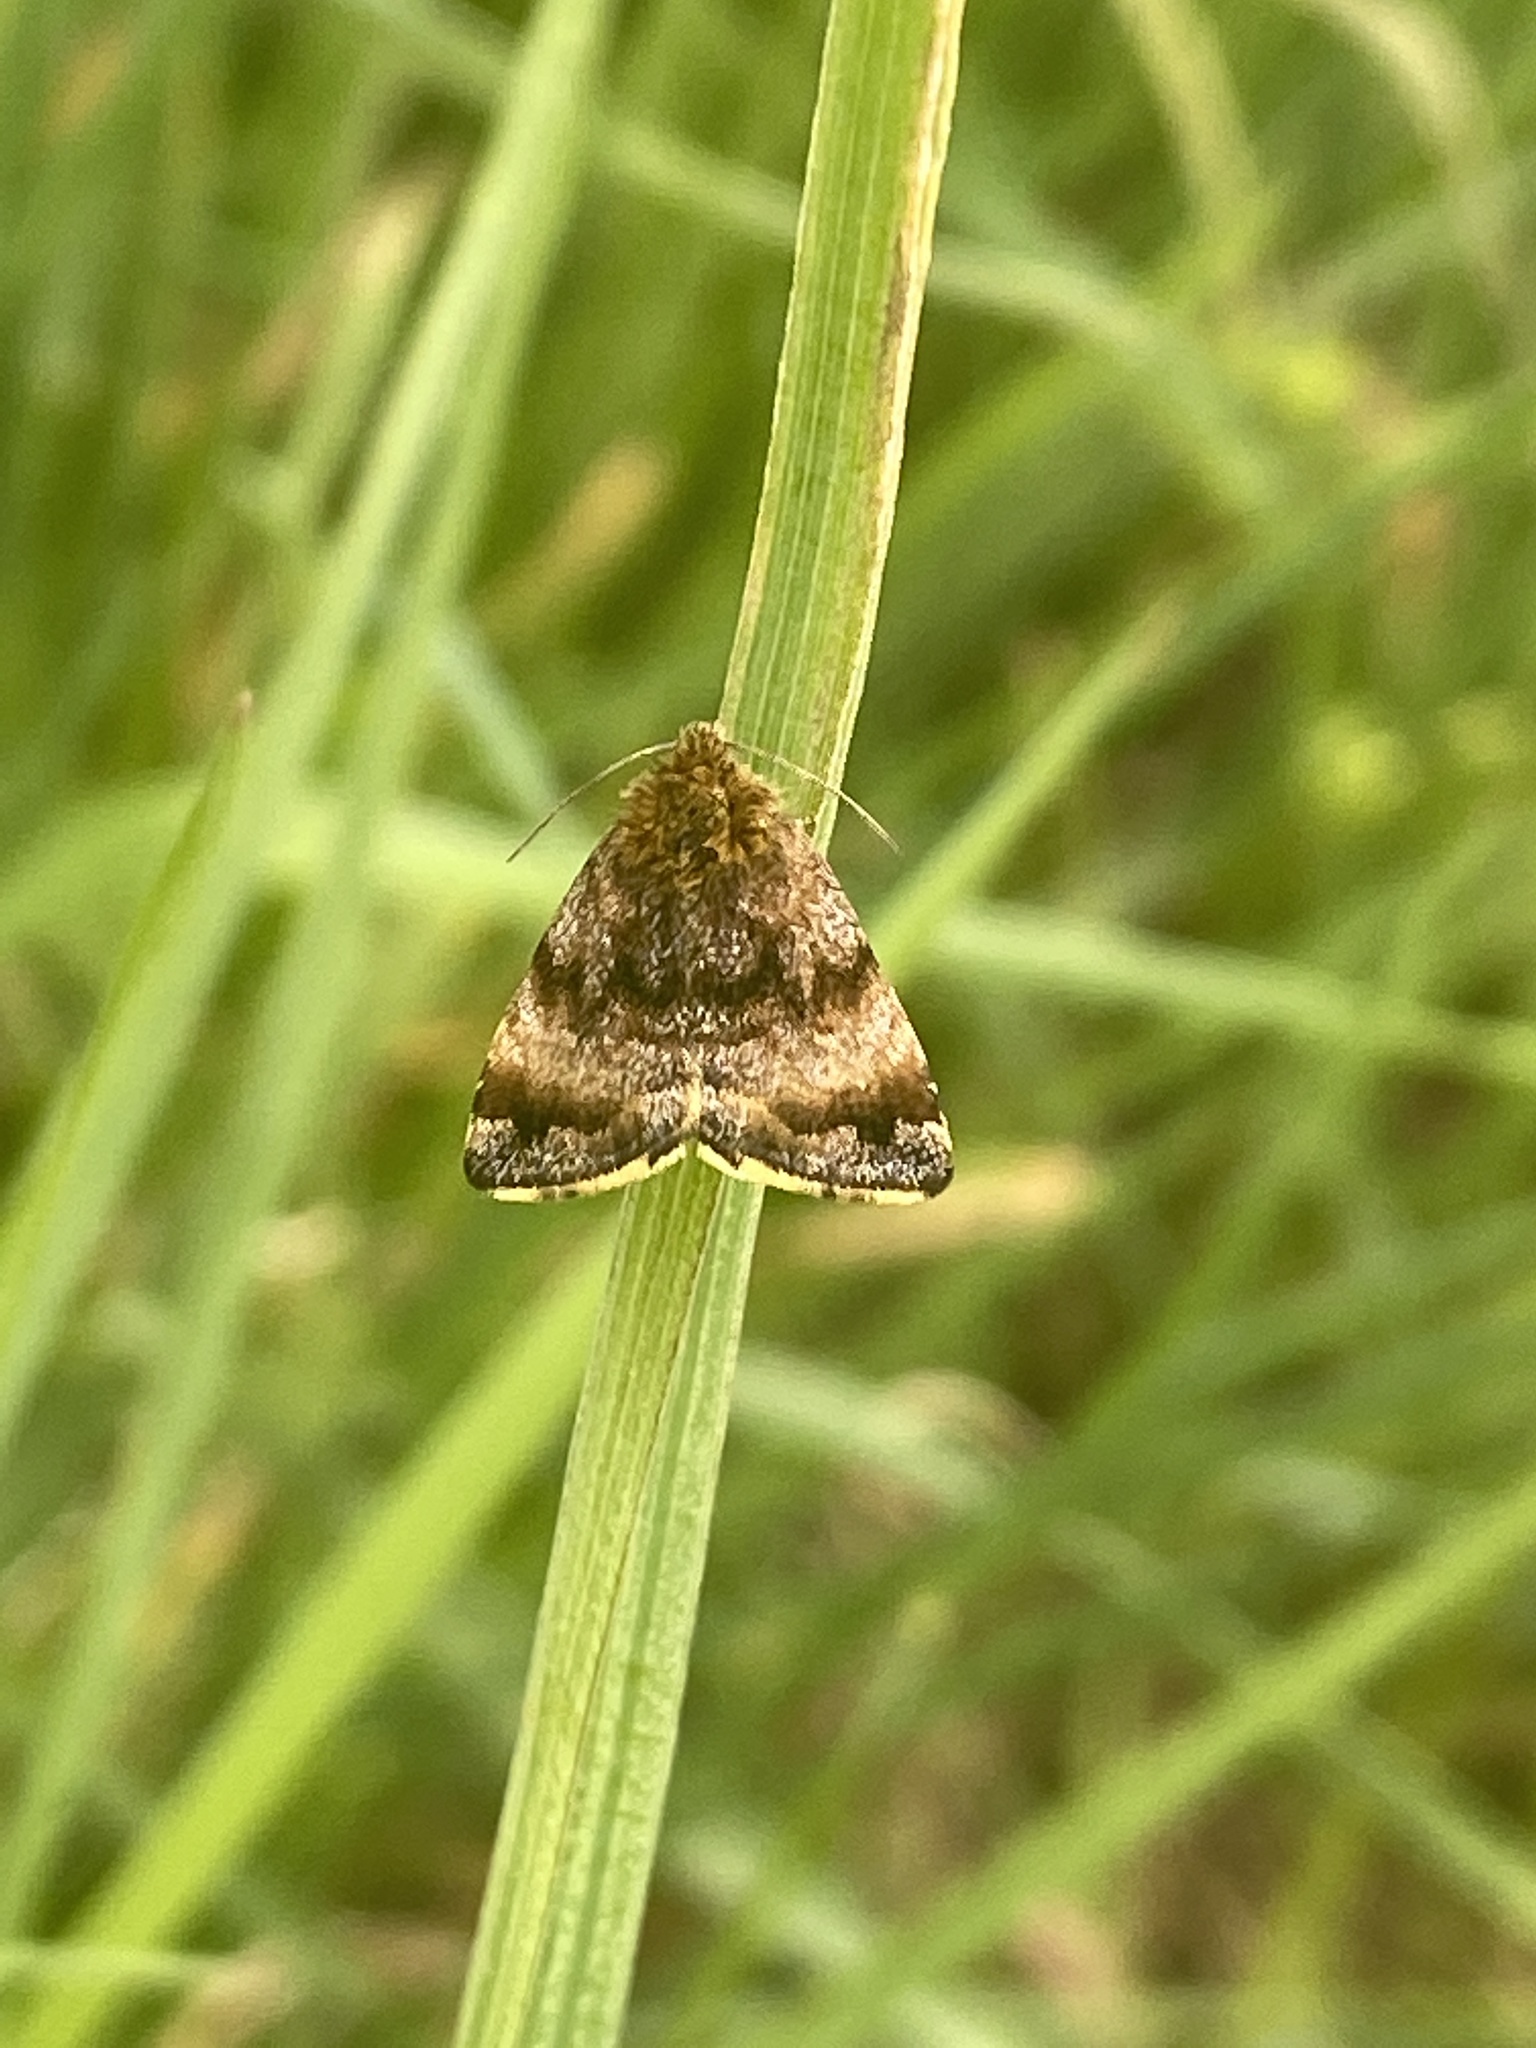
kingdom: Animalia
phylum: Arthropoda
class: Insecta
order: Lepidoptera
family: Noctuidae
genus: Panemeria
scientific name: Panemeria tenebrata
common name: Small yellow underwing
